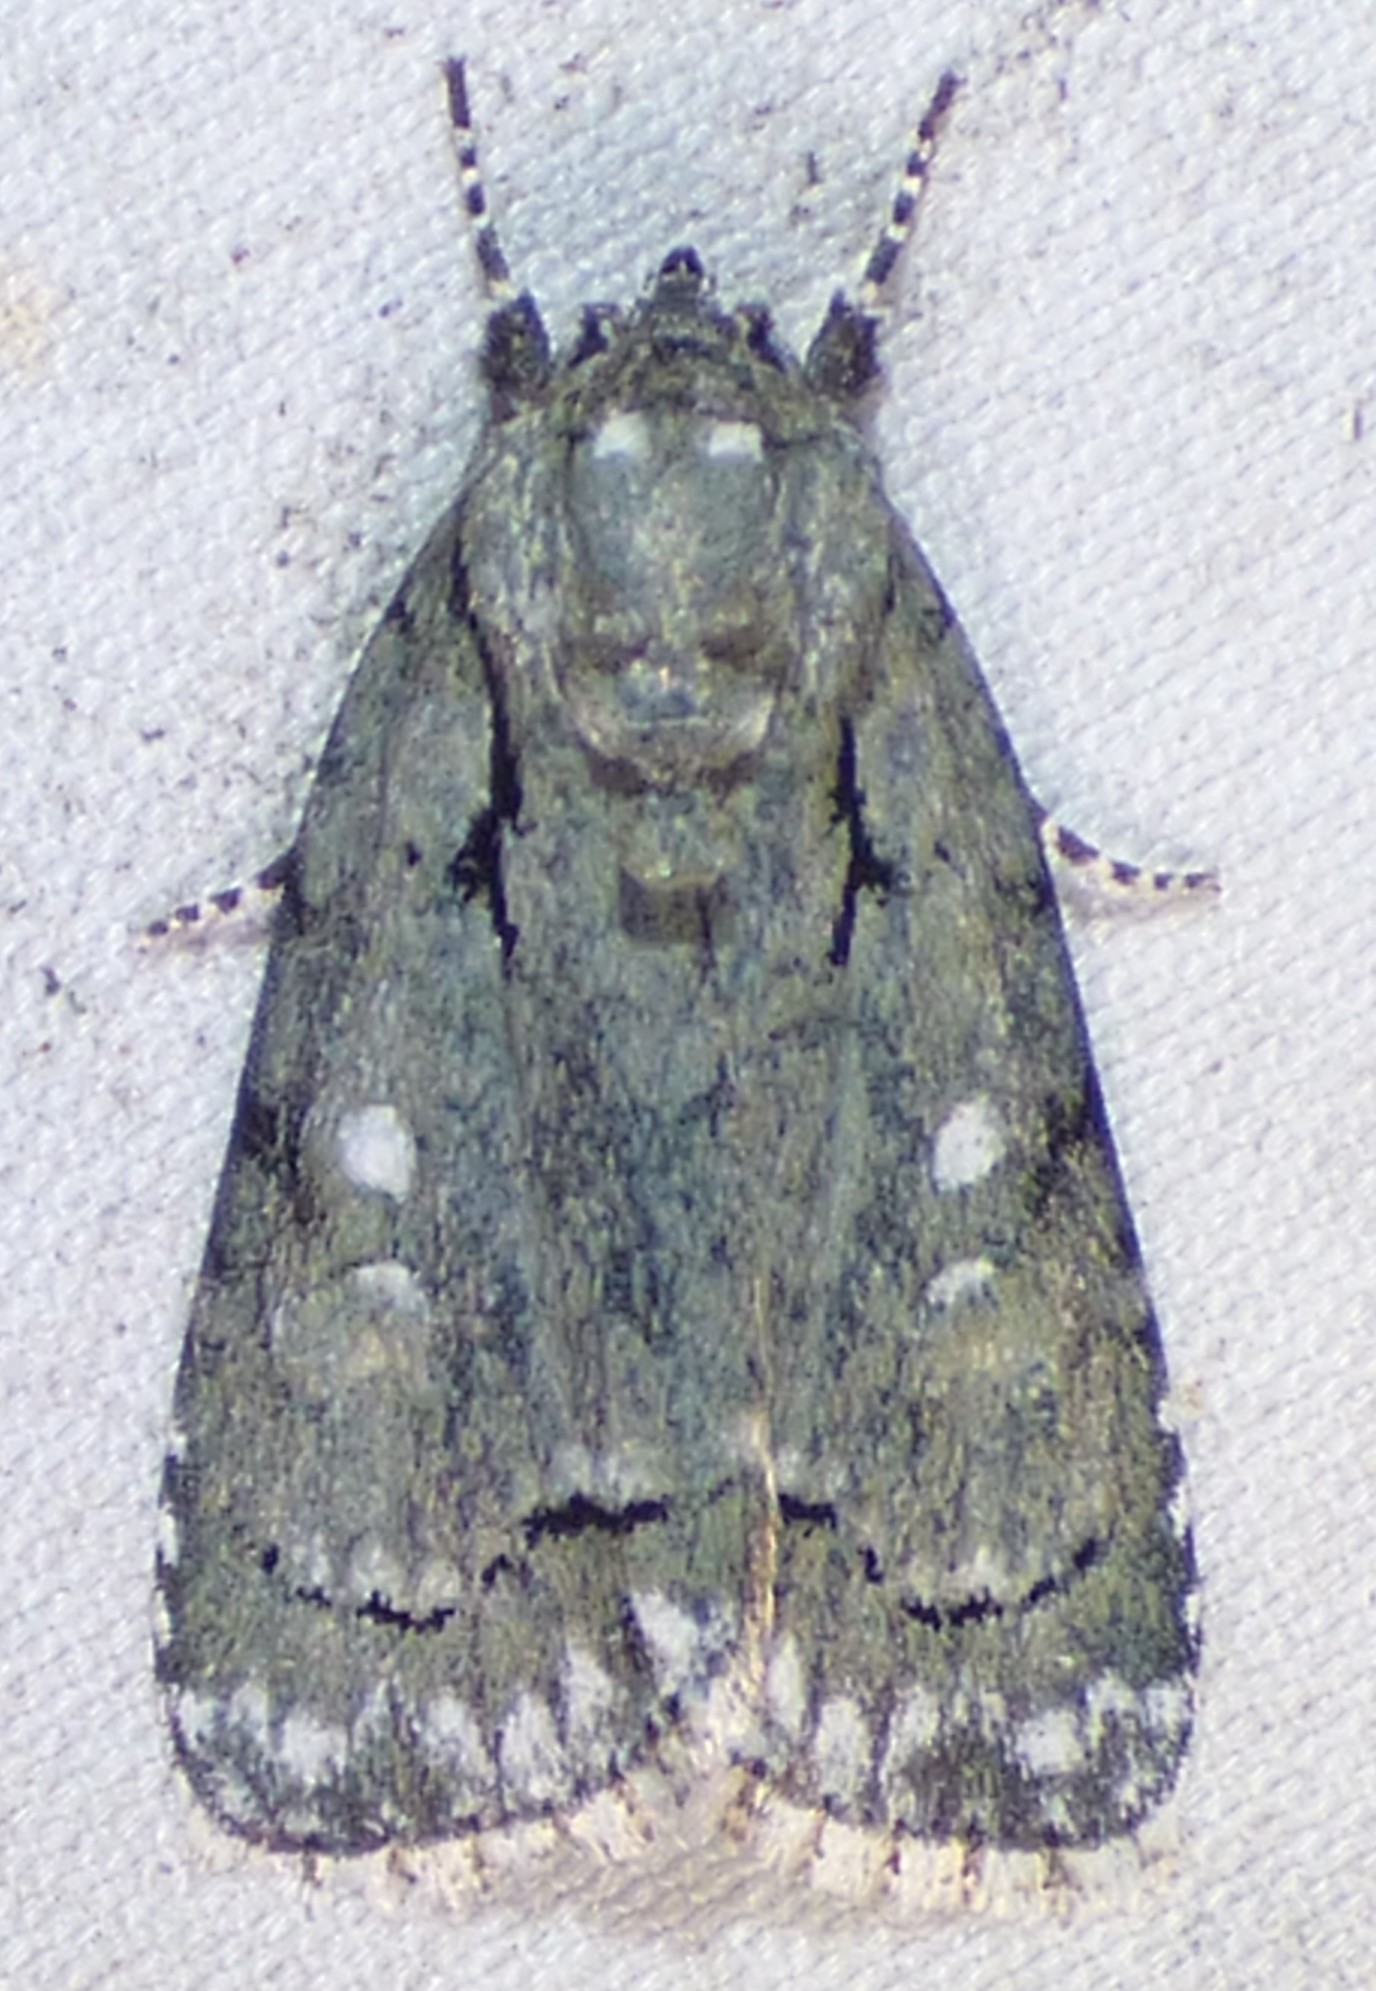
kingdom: Animalia
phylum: Arthropoda
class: Insecta
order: Lepidoptera
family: Noctuidae
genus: Acronicta
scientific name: Acronicta vinnula
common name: Delightful dagger
